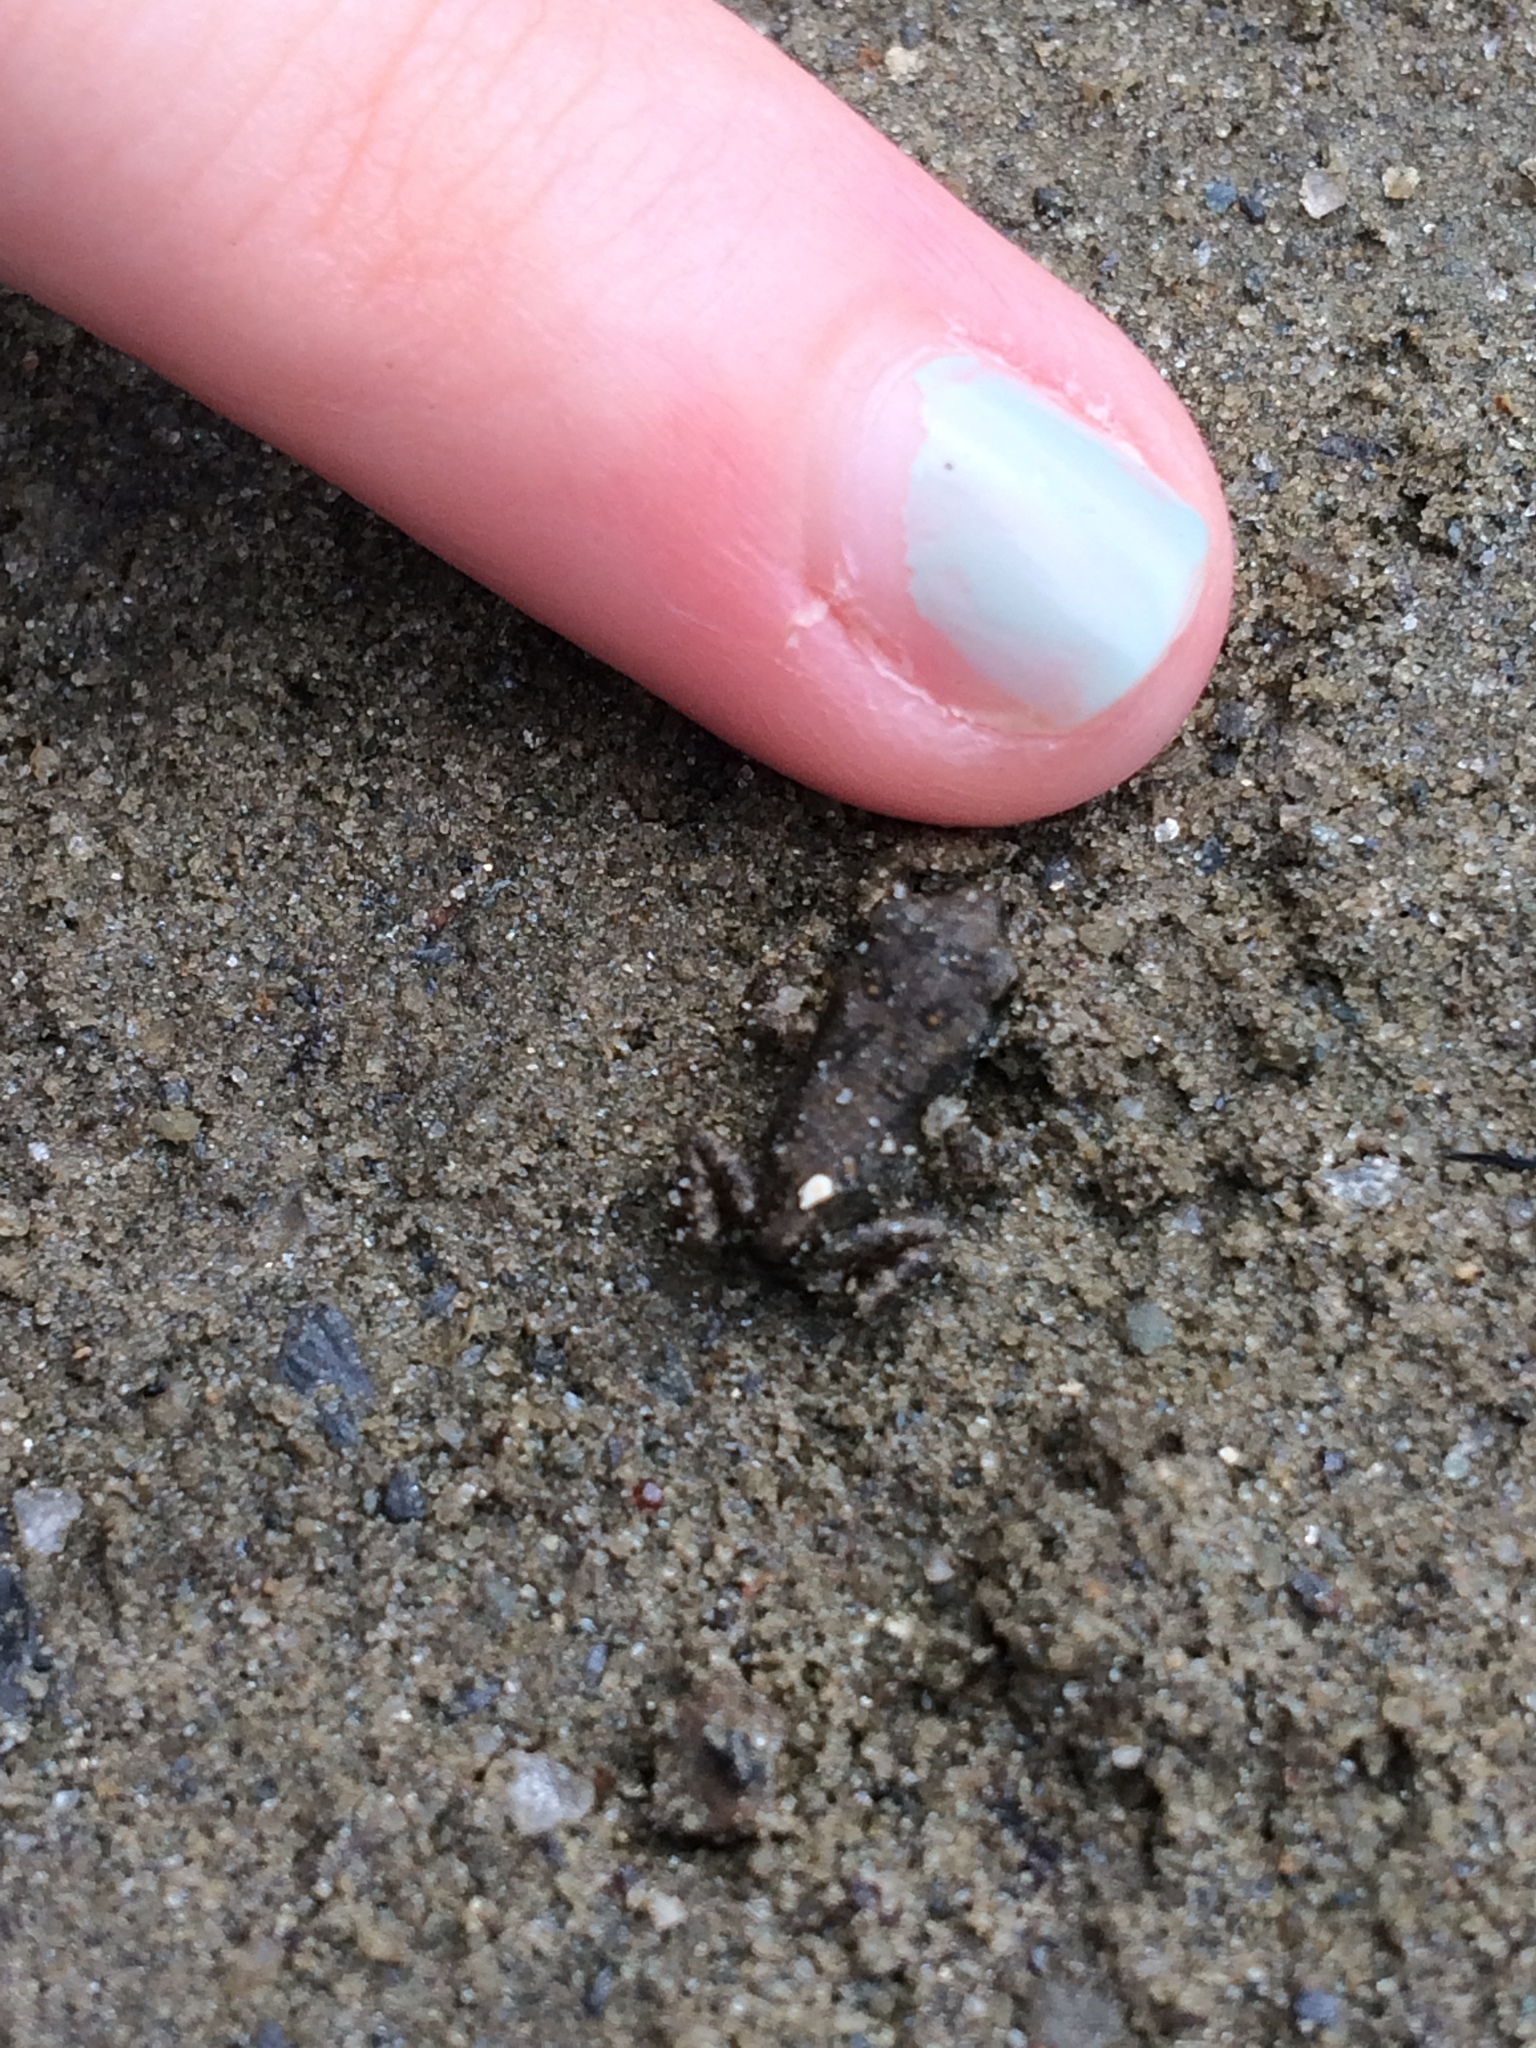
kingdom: Animalia
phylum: Chordata
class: Amphibia
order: Anura
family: Bufonidae
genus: Anaxyrus
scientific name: Anaxyrus americanus
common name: American toad
